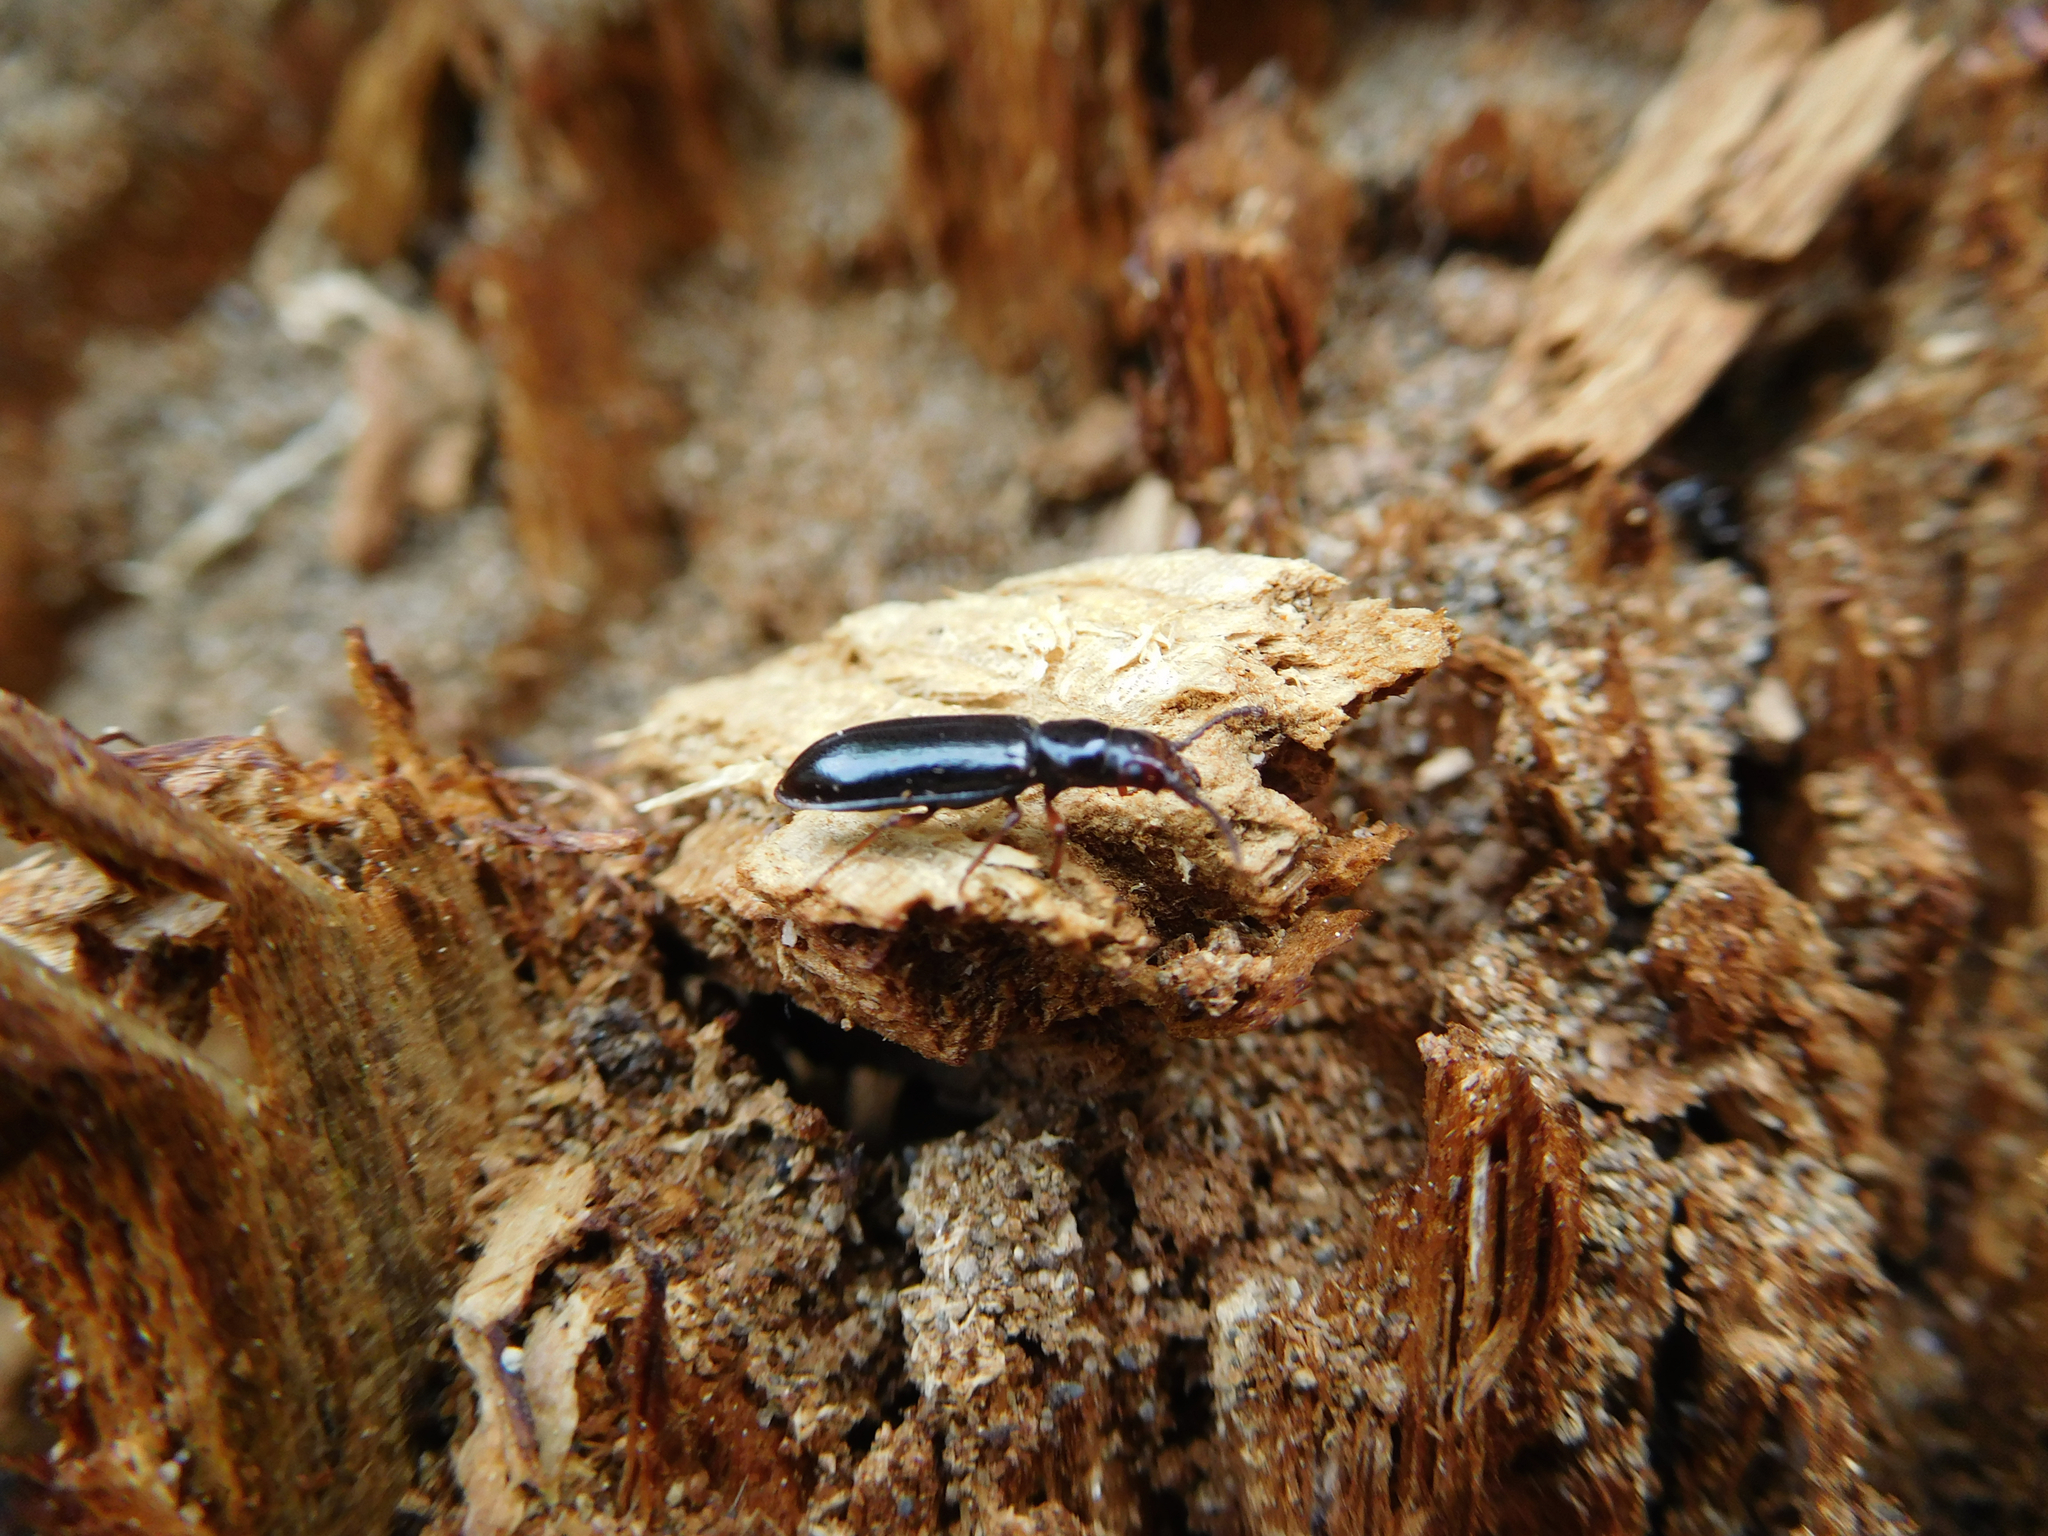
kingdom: Animalia
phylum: Arthropoda
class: Insecta
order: Coleoptera
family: Pythidae
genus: Priognathus
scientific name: Priognathus monilicornis
